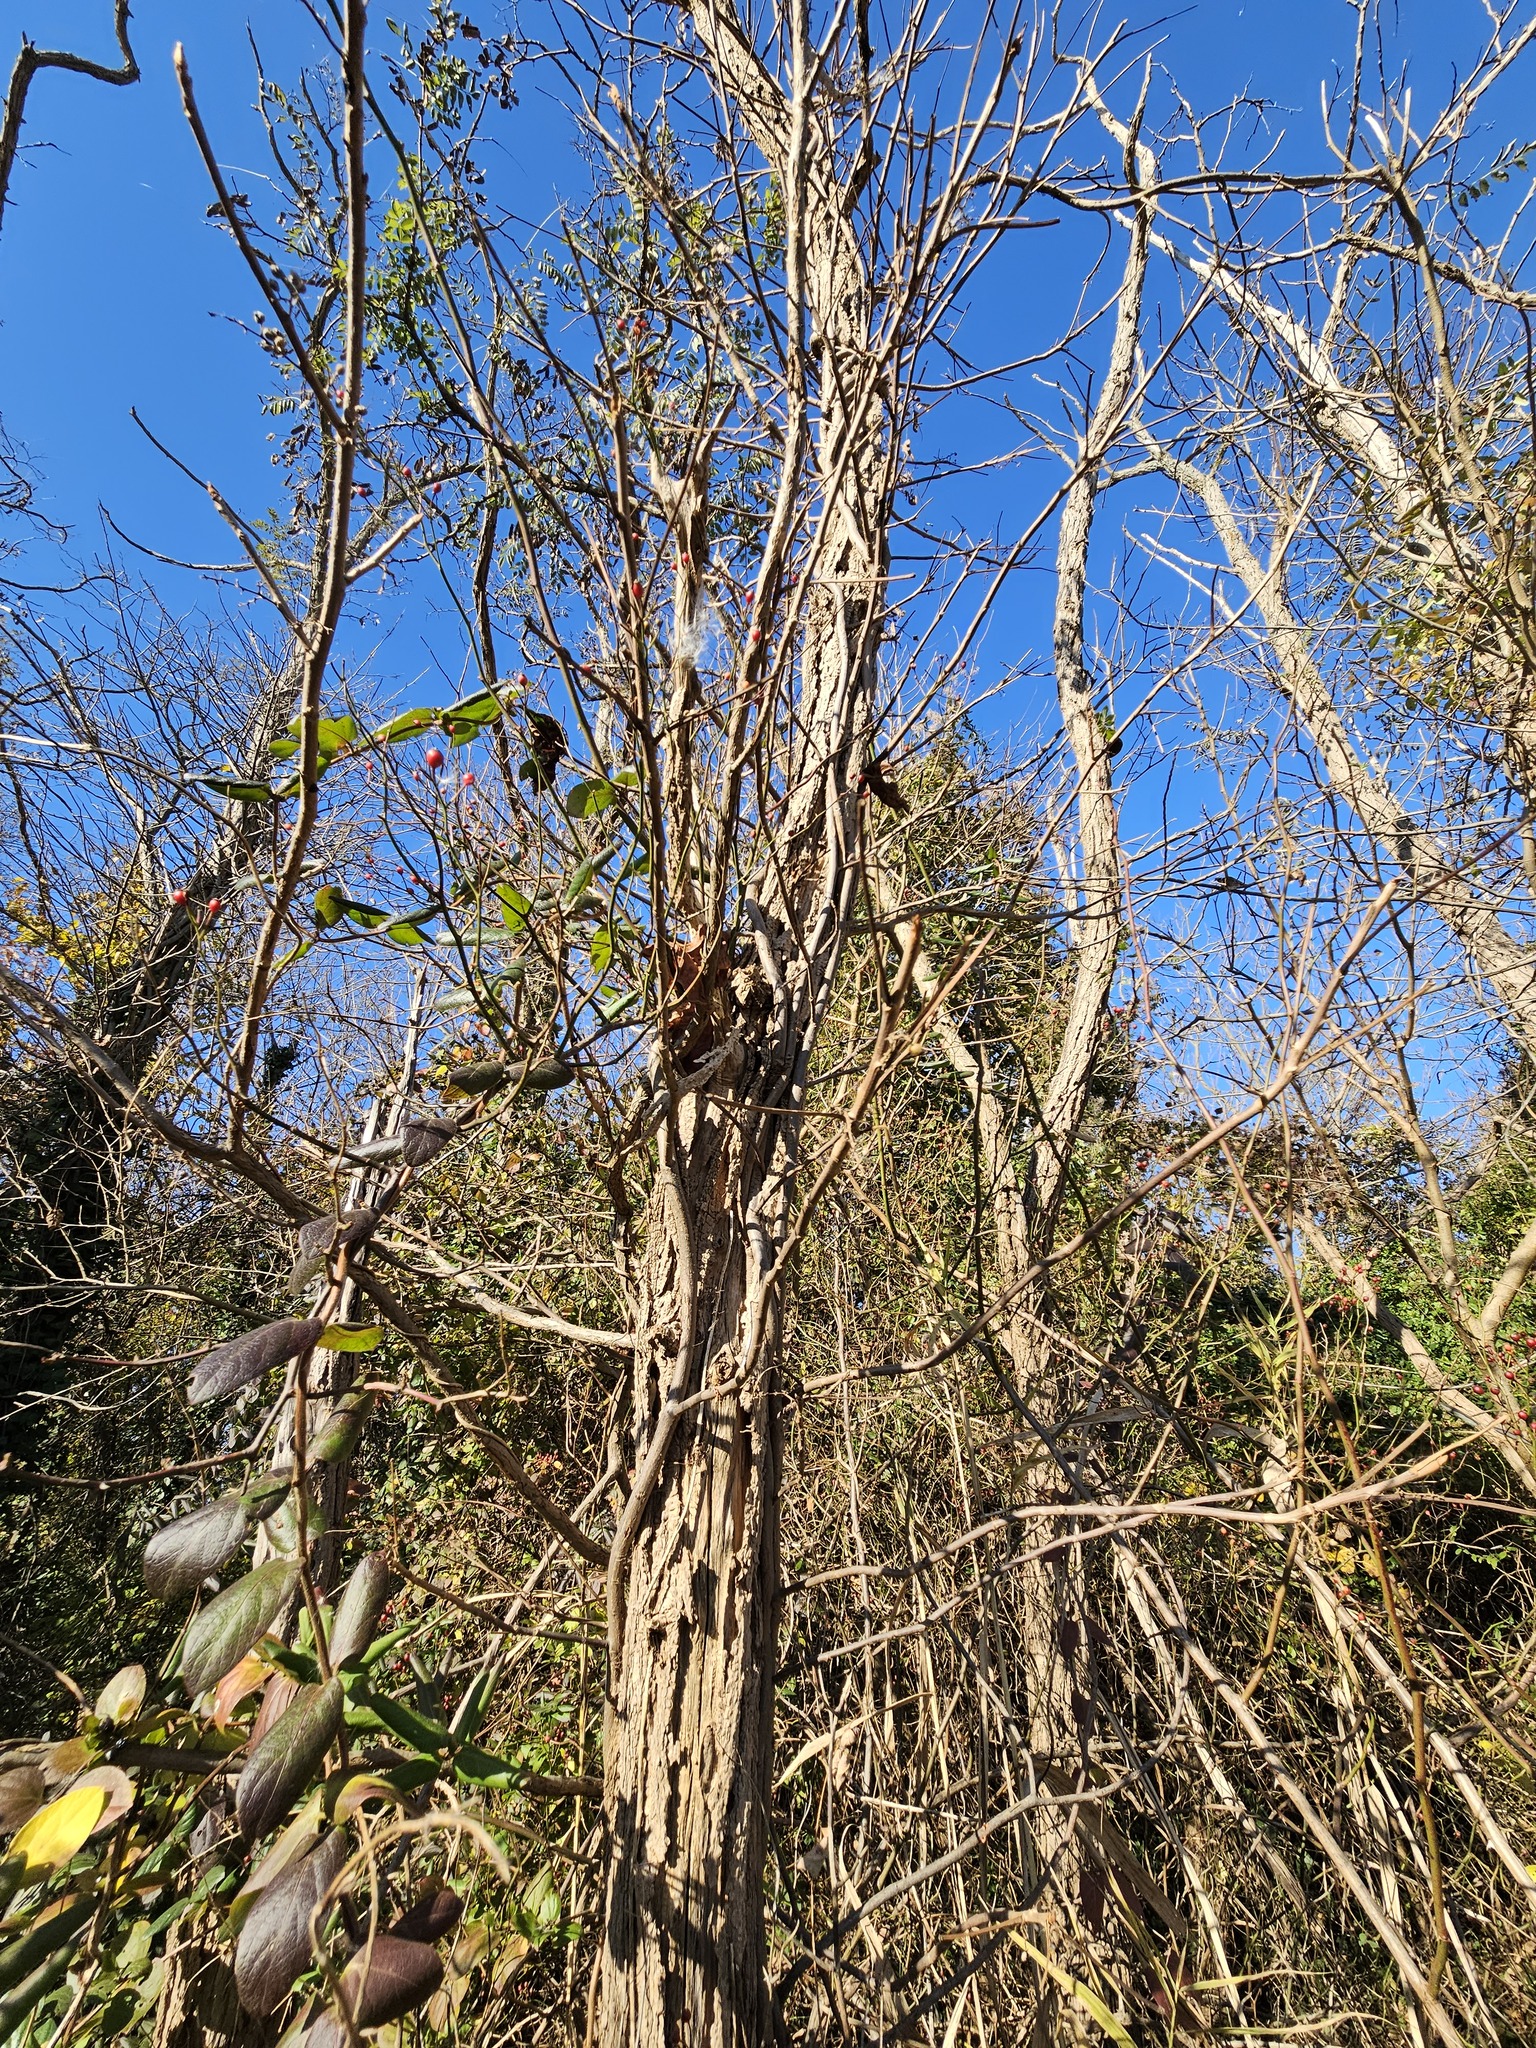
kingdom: Plantae
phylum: Tracheophyta
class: Magnoliopsida
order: Sapindales
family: Anacardiaceae
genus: Toxicodendron
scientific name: Toxicodendron radicans
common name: Poison ivy
